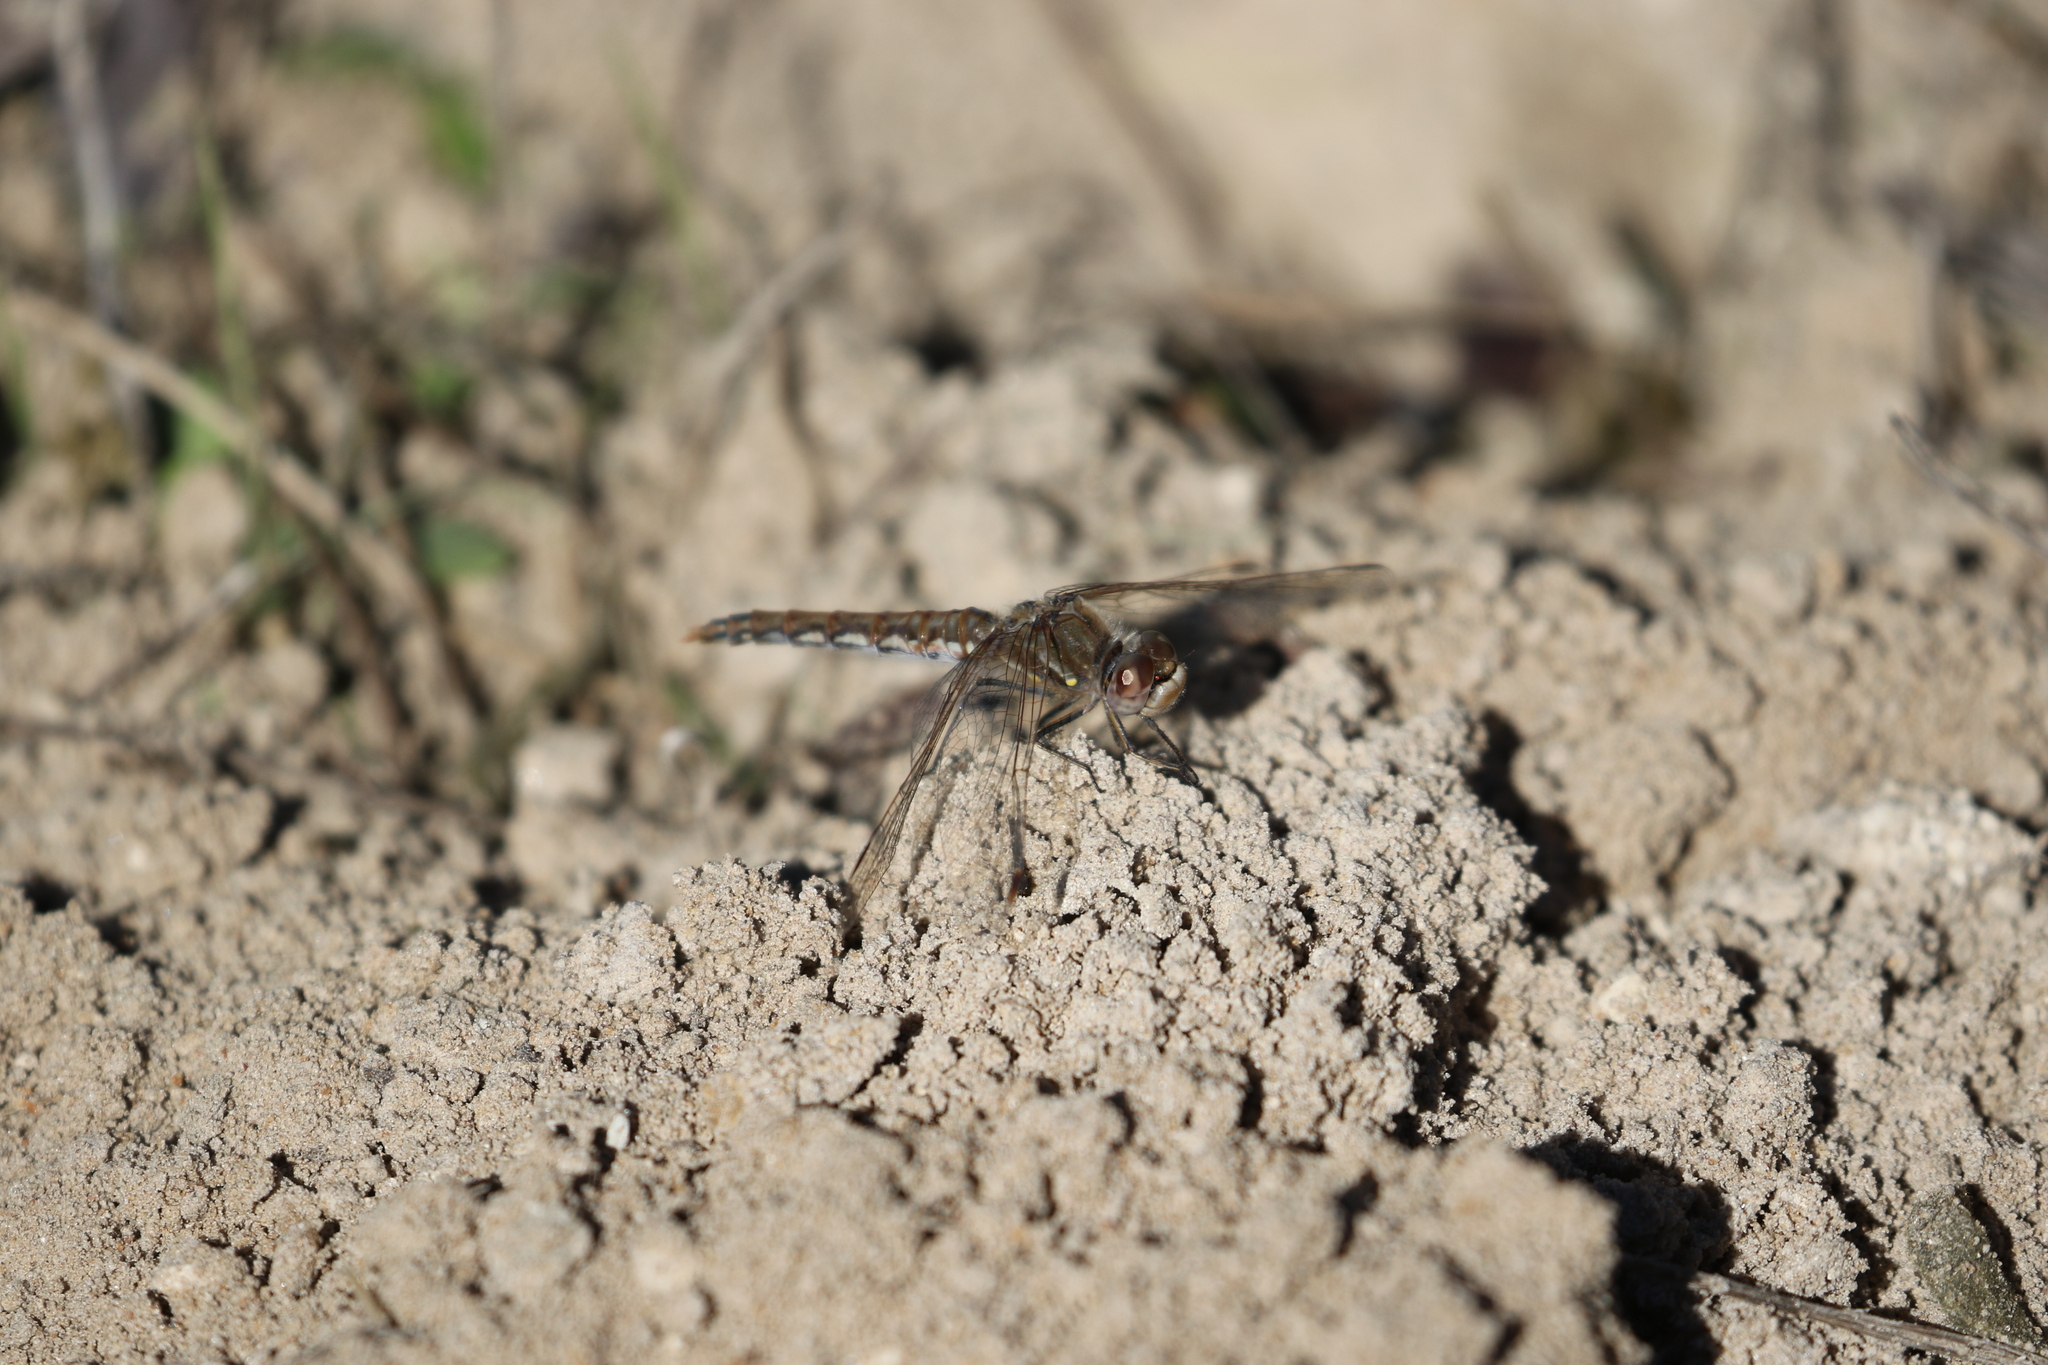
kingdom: Animalia
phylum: Arthropoda
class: Insecta
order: Odonata
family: Libellulidae
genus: Sympetrum
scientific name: Sympetrum corruptum
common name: Variegated meadowhawk
